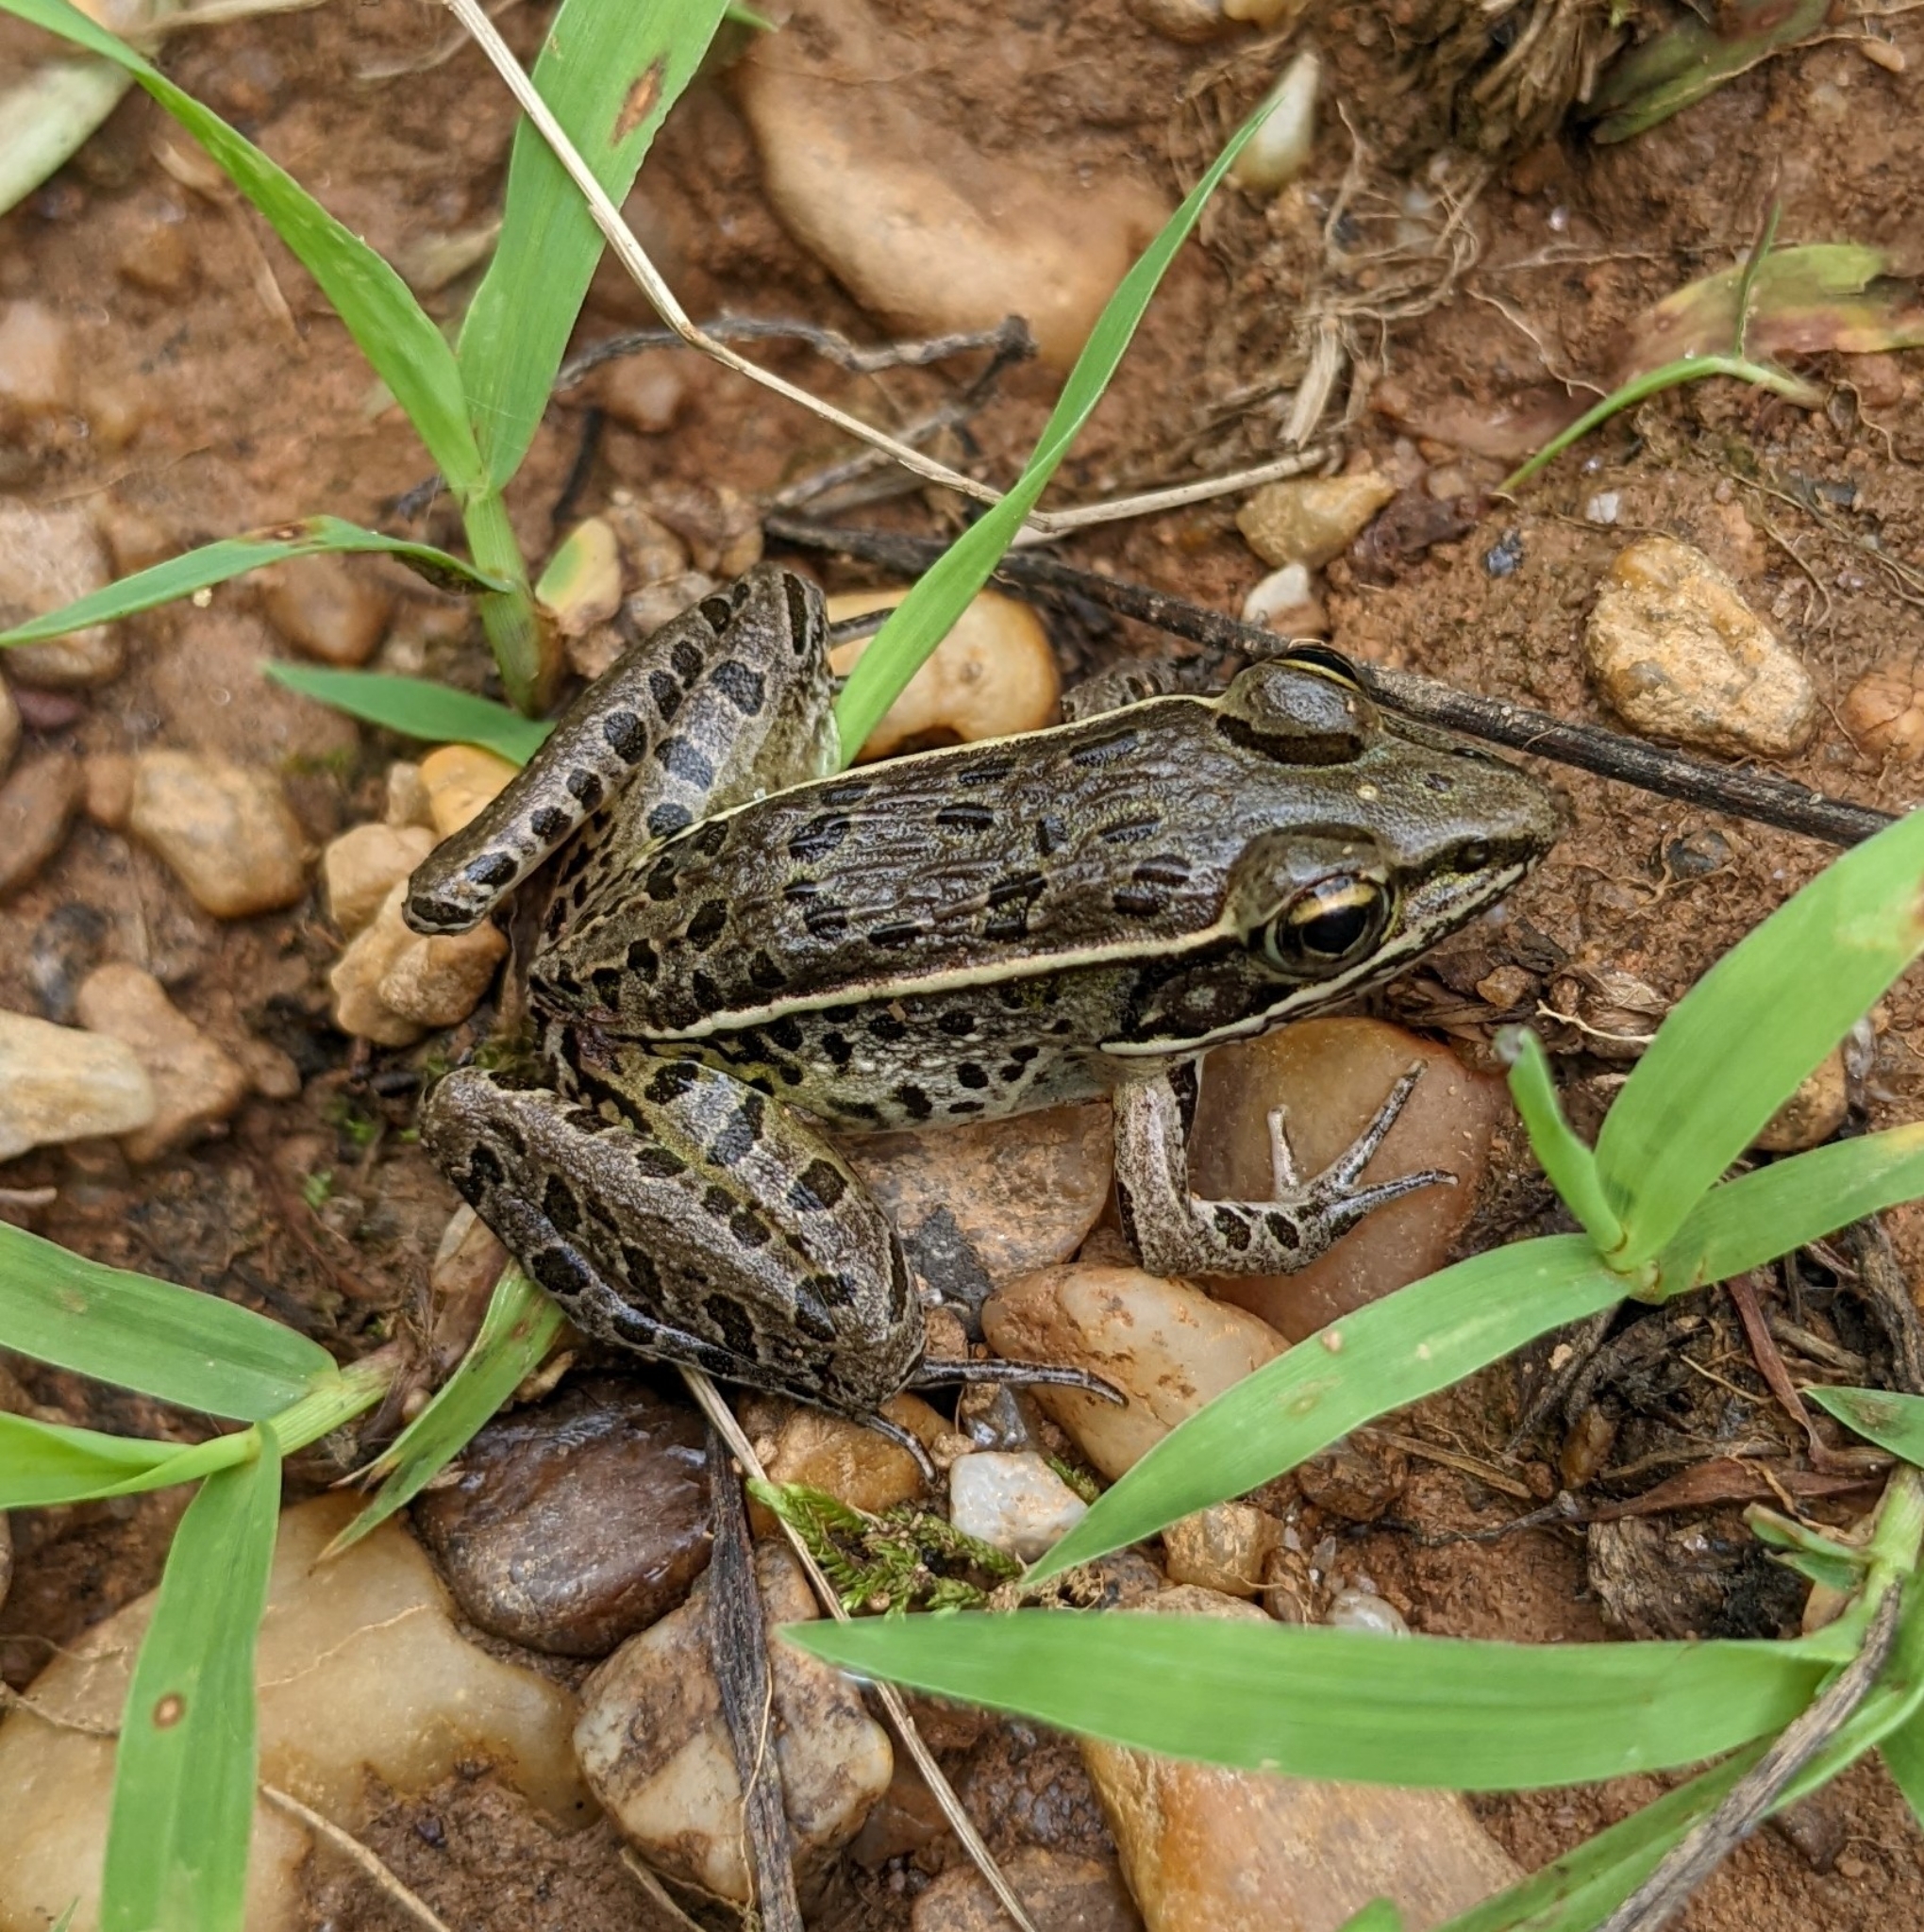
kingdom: Animalia
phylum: Chordata
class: Amphibia
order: Anura
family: Ranidae
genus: Lithobates
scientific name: Lithobates sphenocephalus
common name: Southern leopard frog
